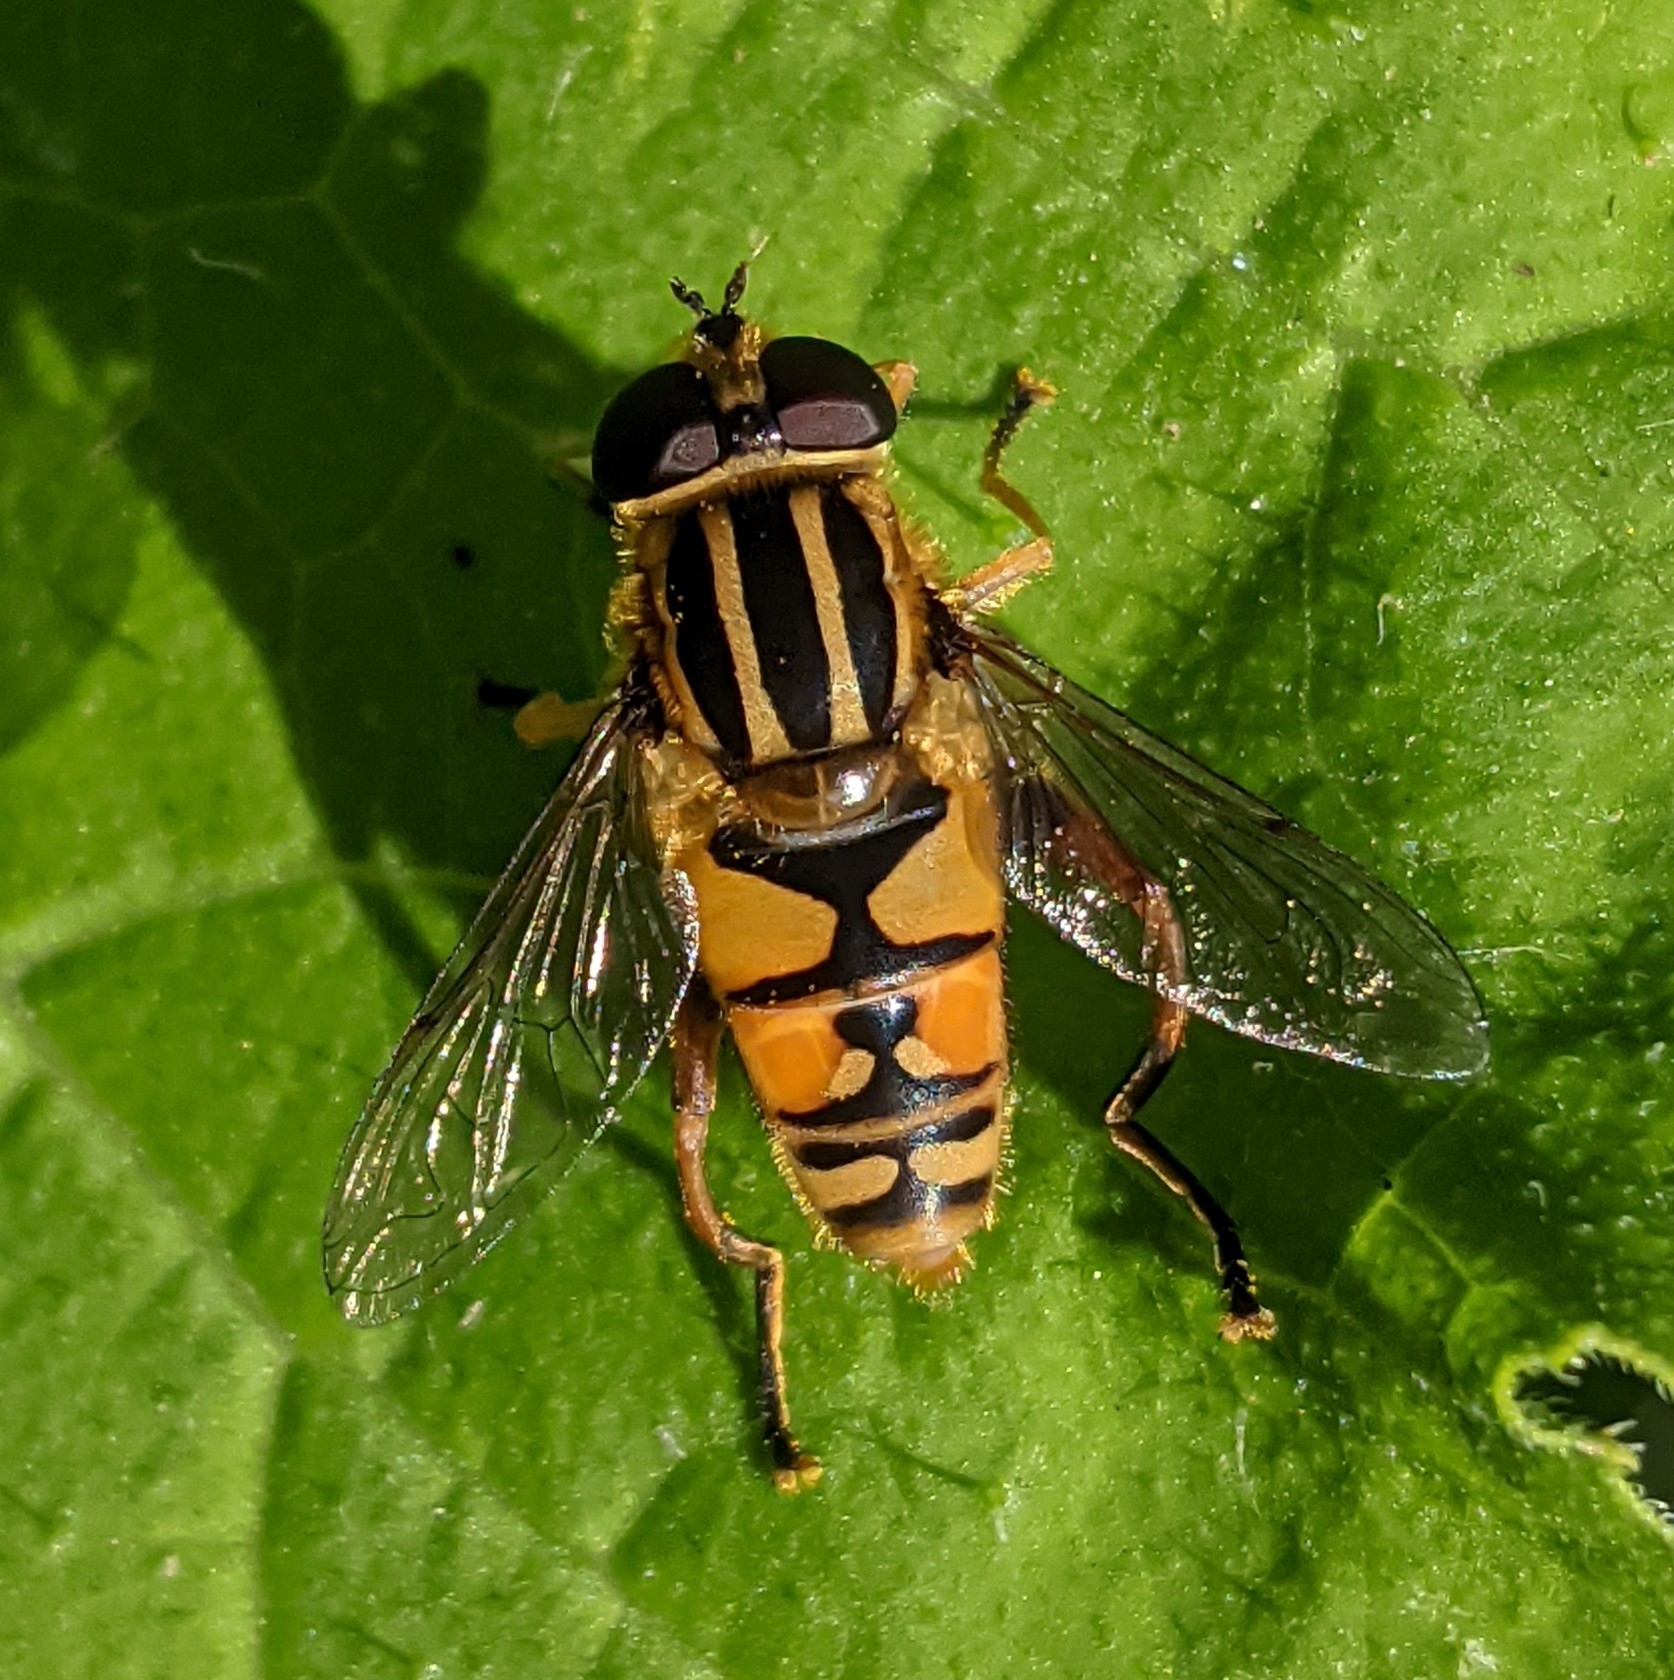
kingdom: Animalia
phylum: Arthropoda
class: Insecta
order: Diptera
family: Syrphidae
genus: Helophilus
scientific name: Helophilus pendulus
